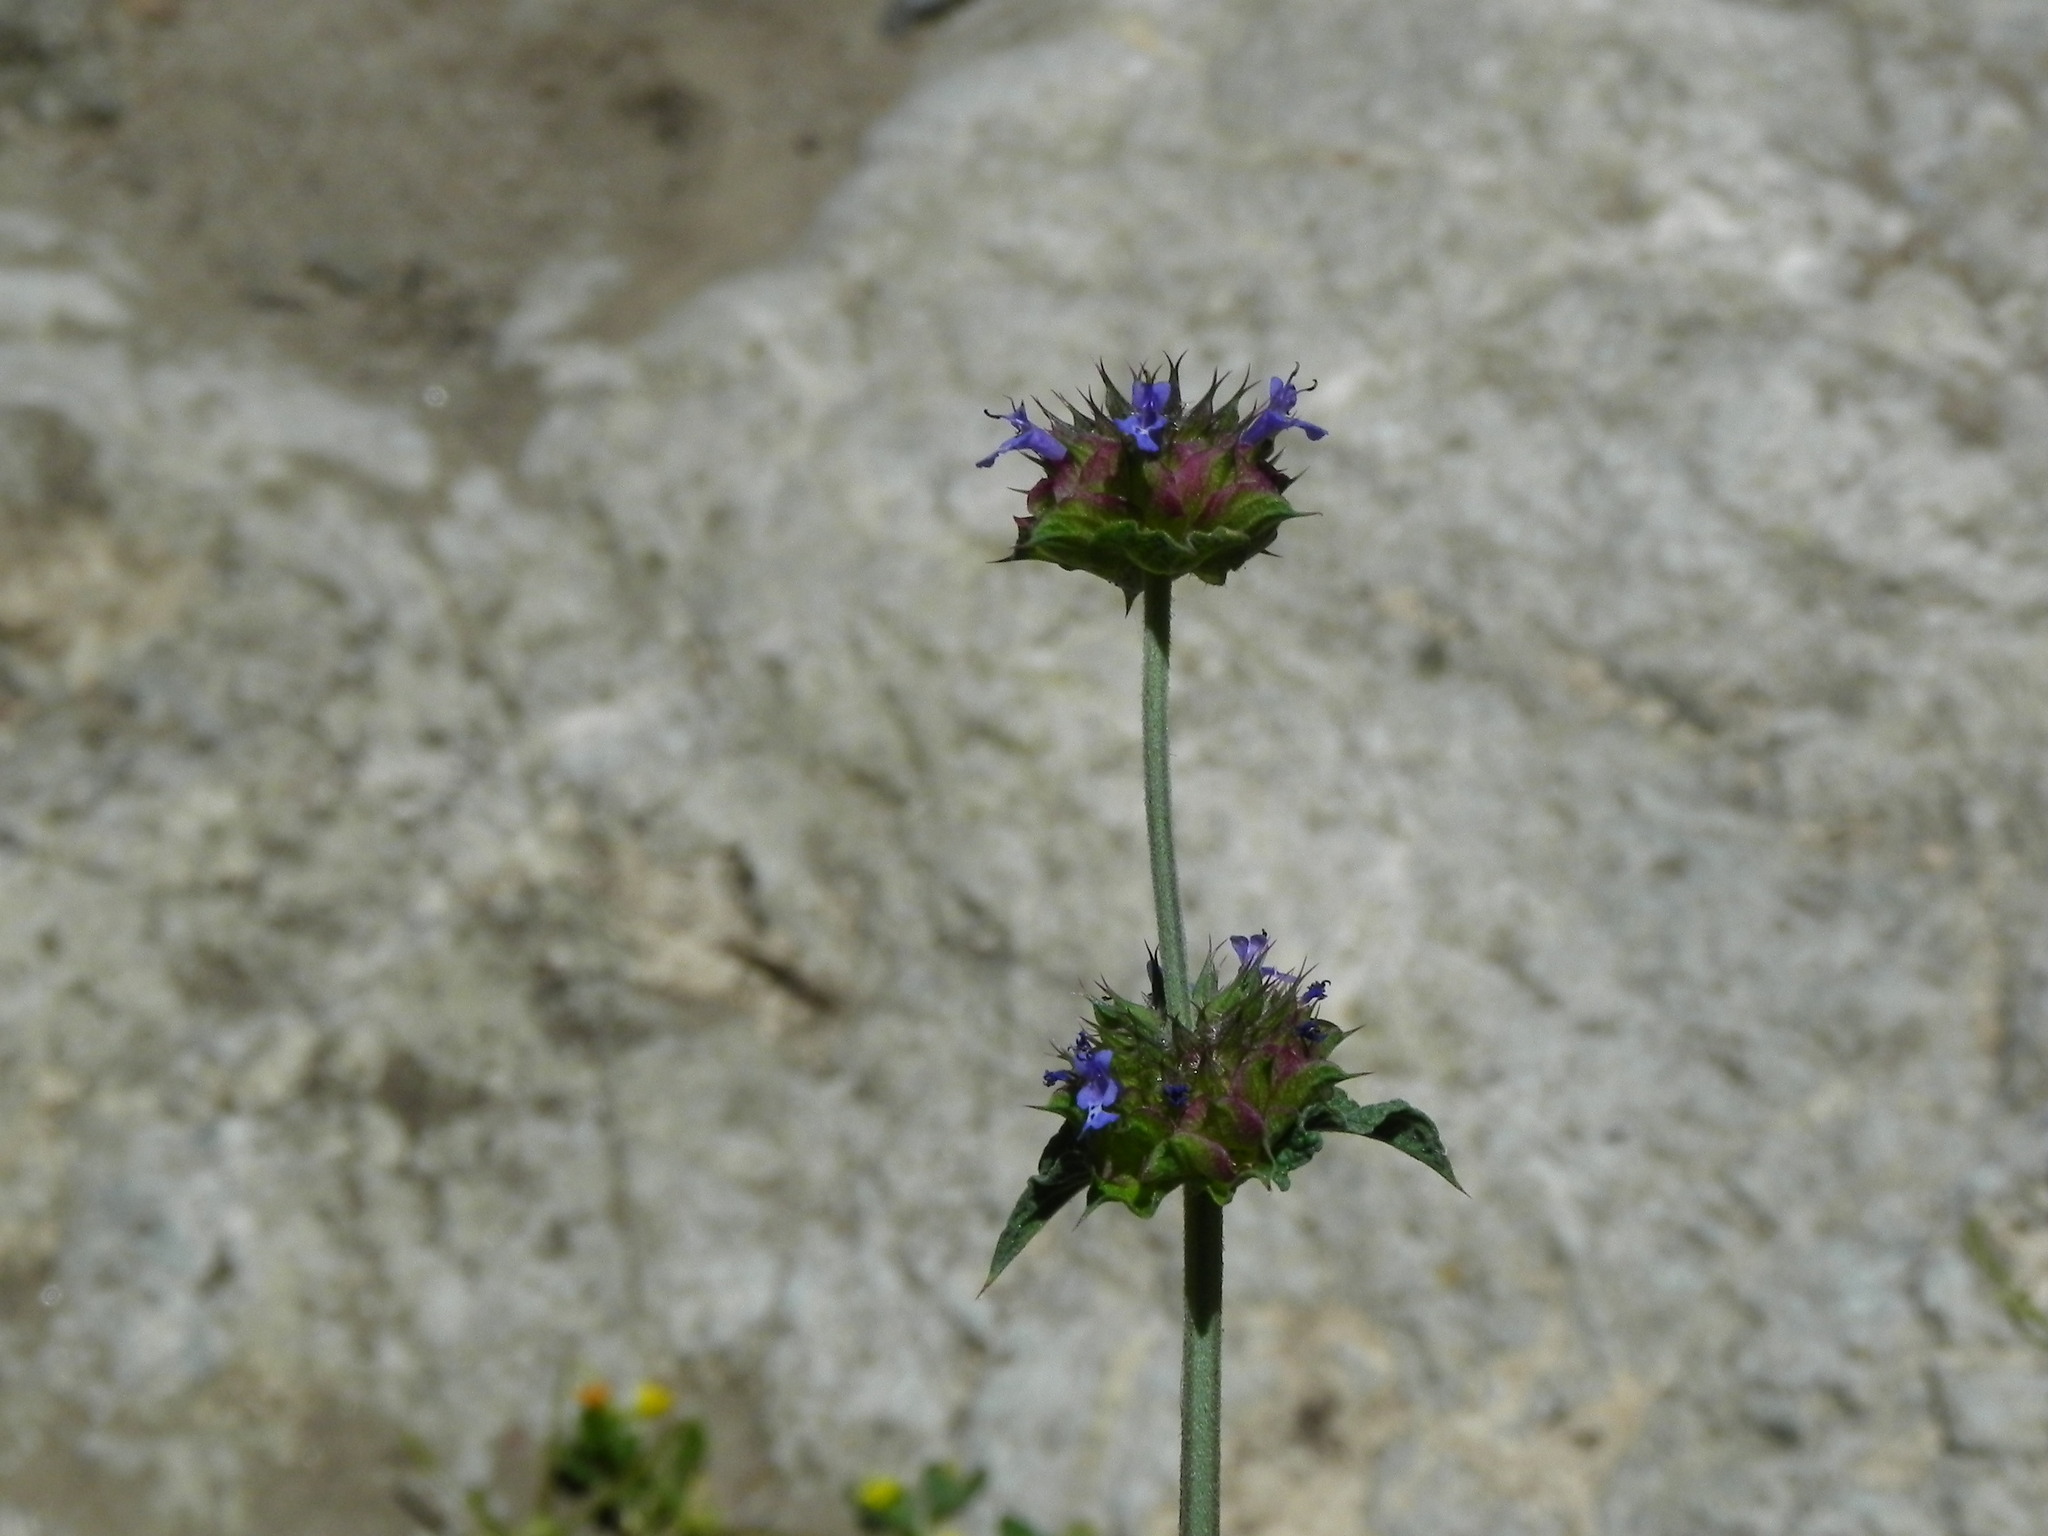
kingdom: Plantae
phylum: Tracheophyta
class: Magnoliopsida
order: Lamiales
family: Lamiaceae
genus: Salvia
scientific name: Salvia columbariae
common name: Chia
